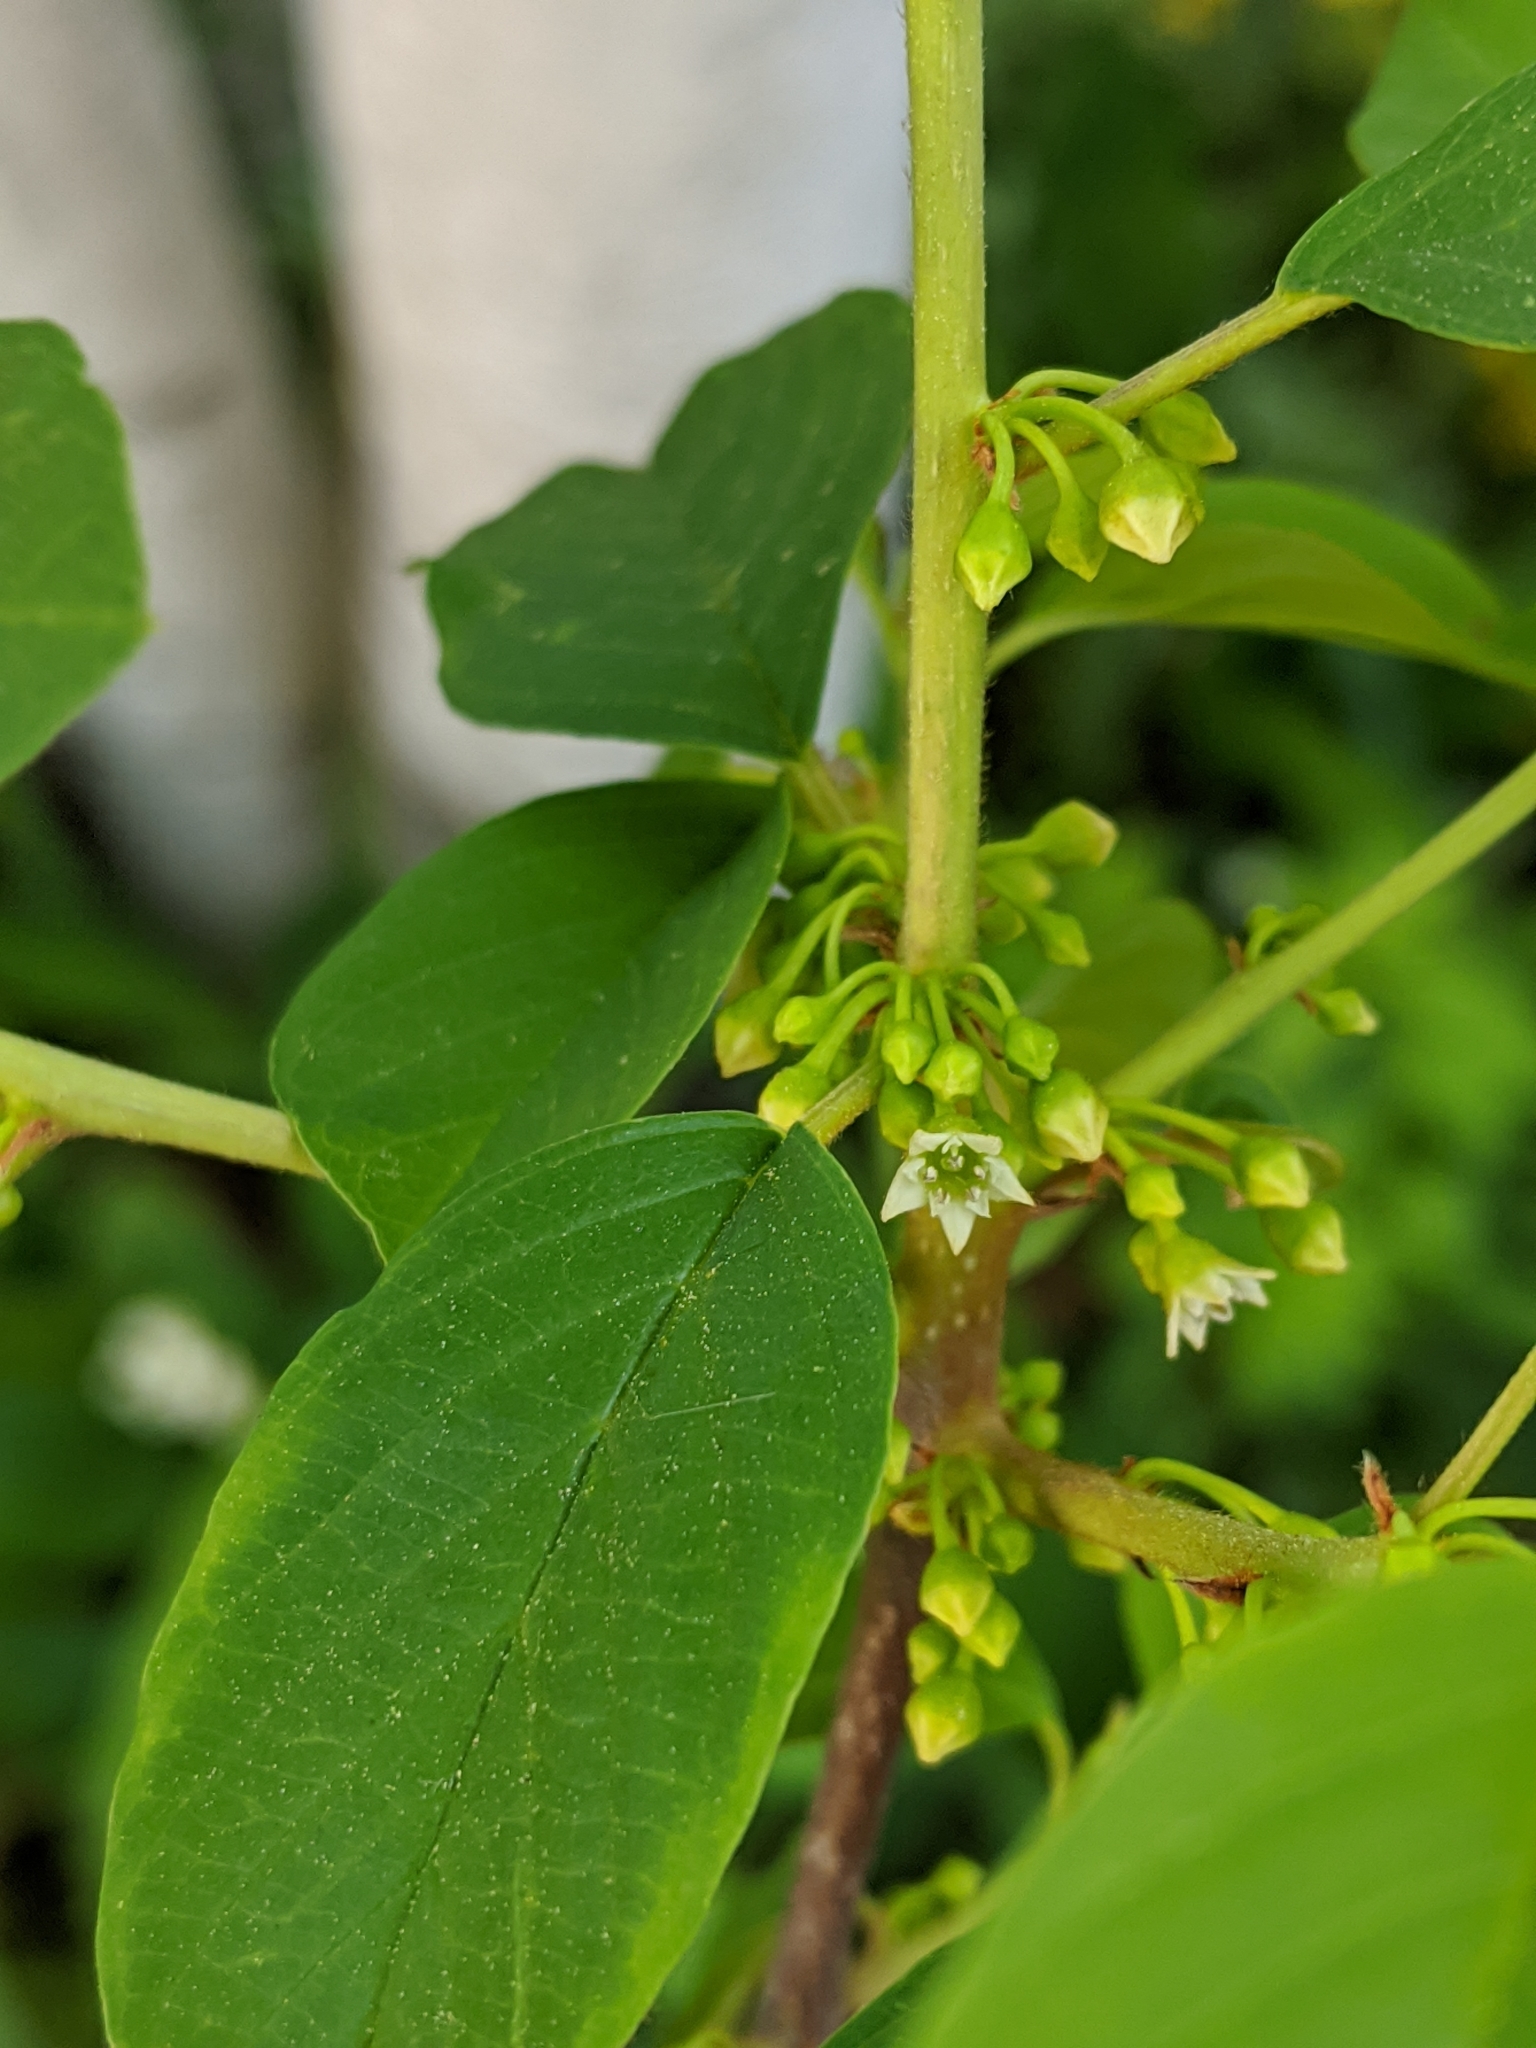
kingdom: Plantae
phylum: Tracheophyta
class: Magnoliopsida
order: Rosales
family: Rhamnaceae
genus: Frangula
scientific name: Frangula alnus
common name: Alder buckthorn
